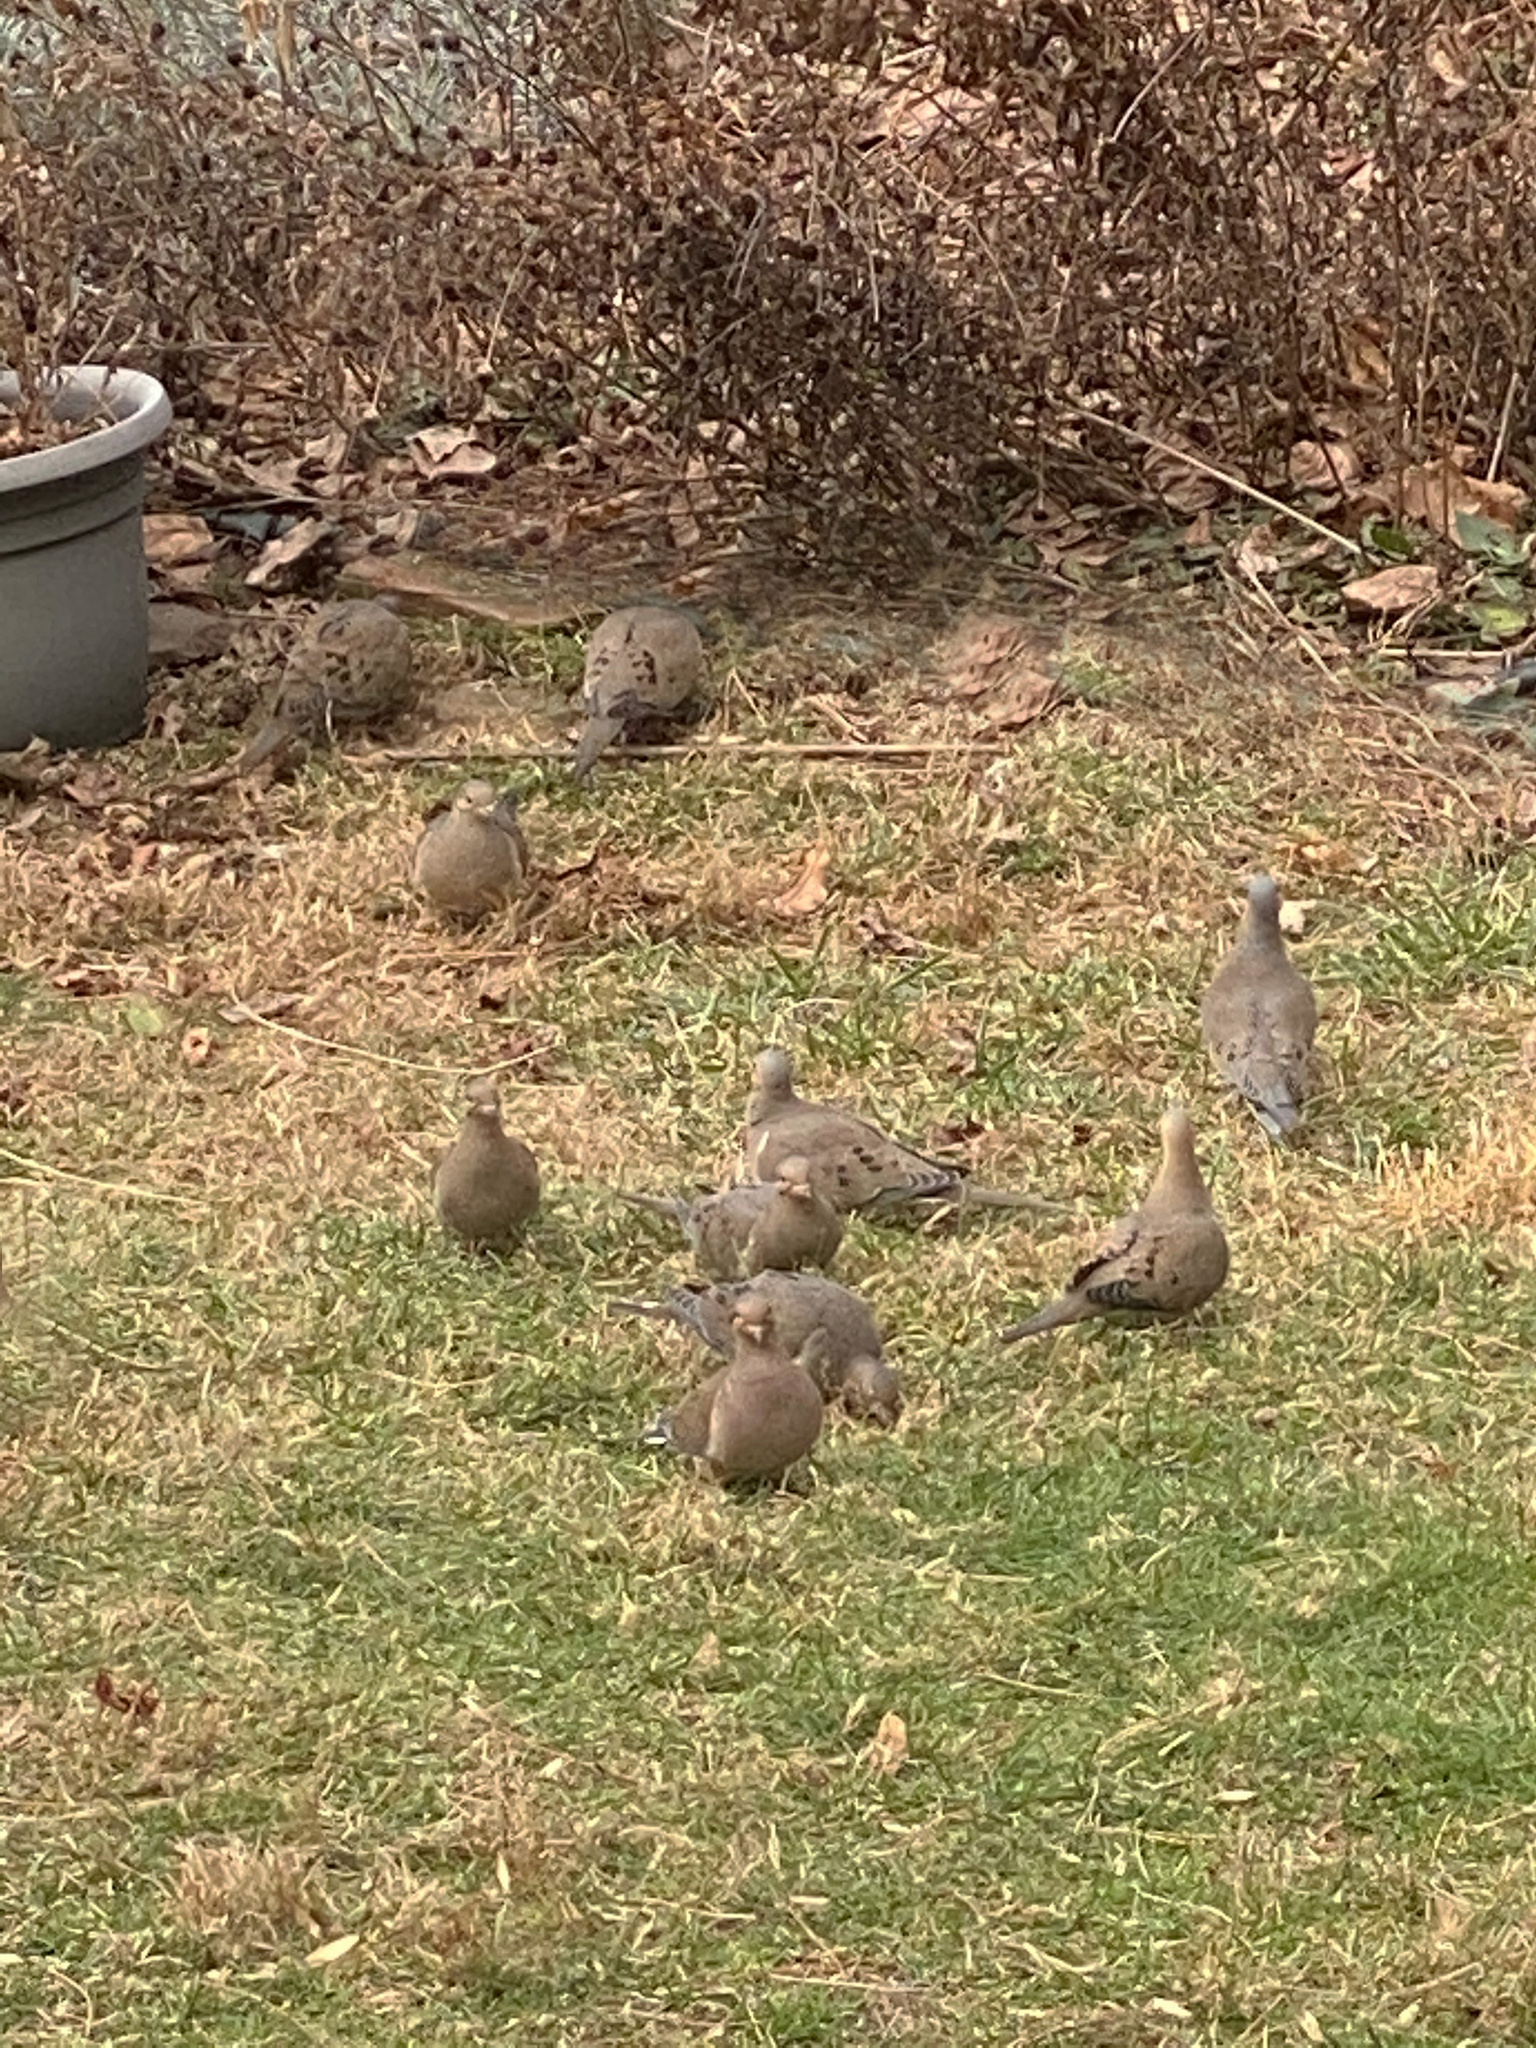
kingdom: Animalia
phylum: Chordata
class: Aves
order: Columbiformes
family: Columbidae
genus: Zenaida
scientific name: Zenaida macroura
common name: Mourning dove
